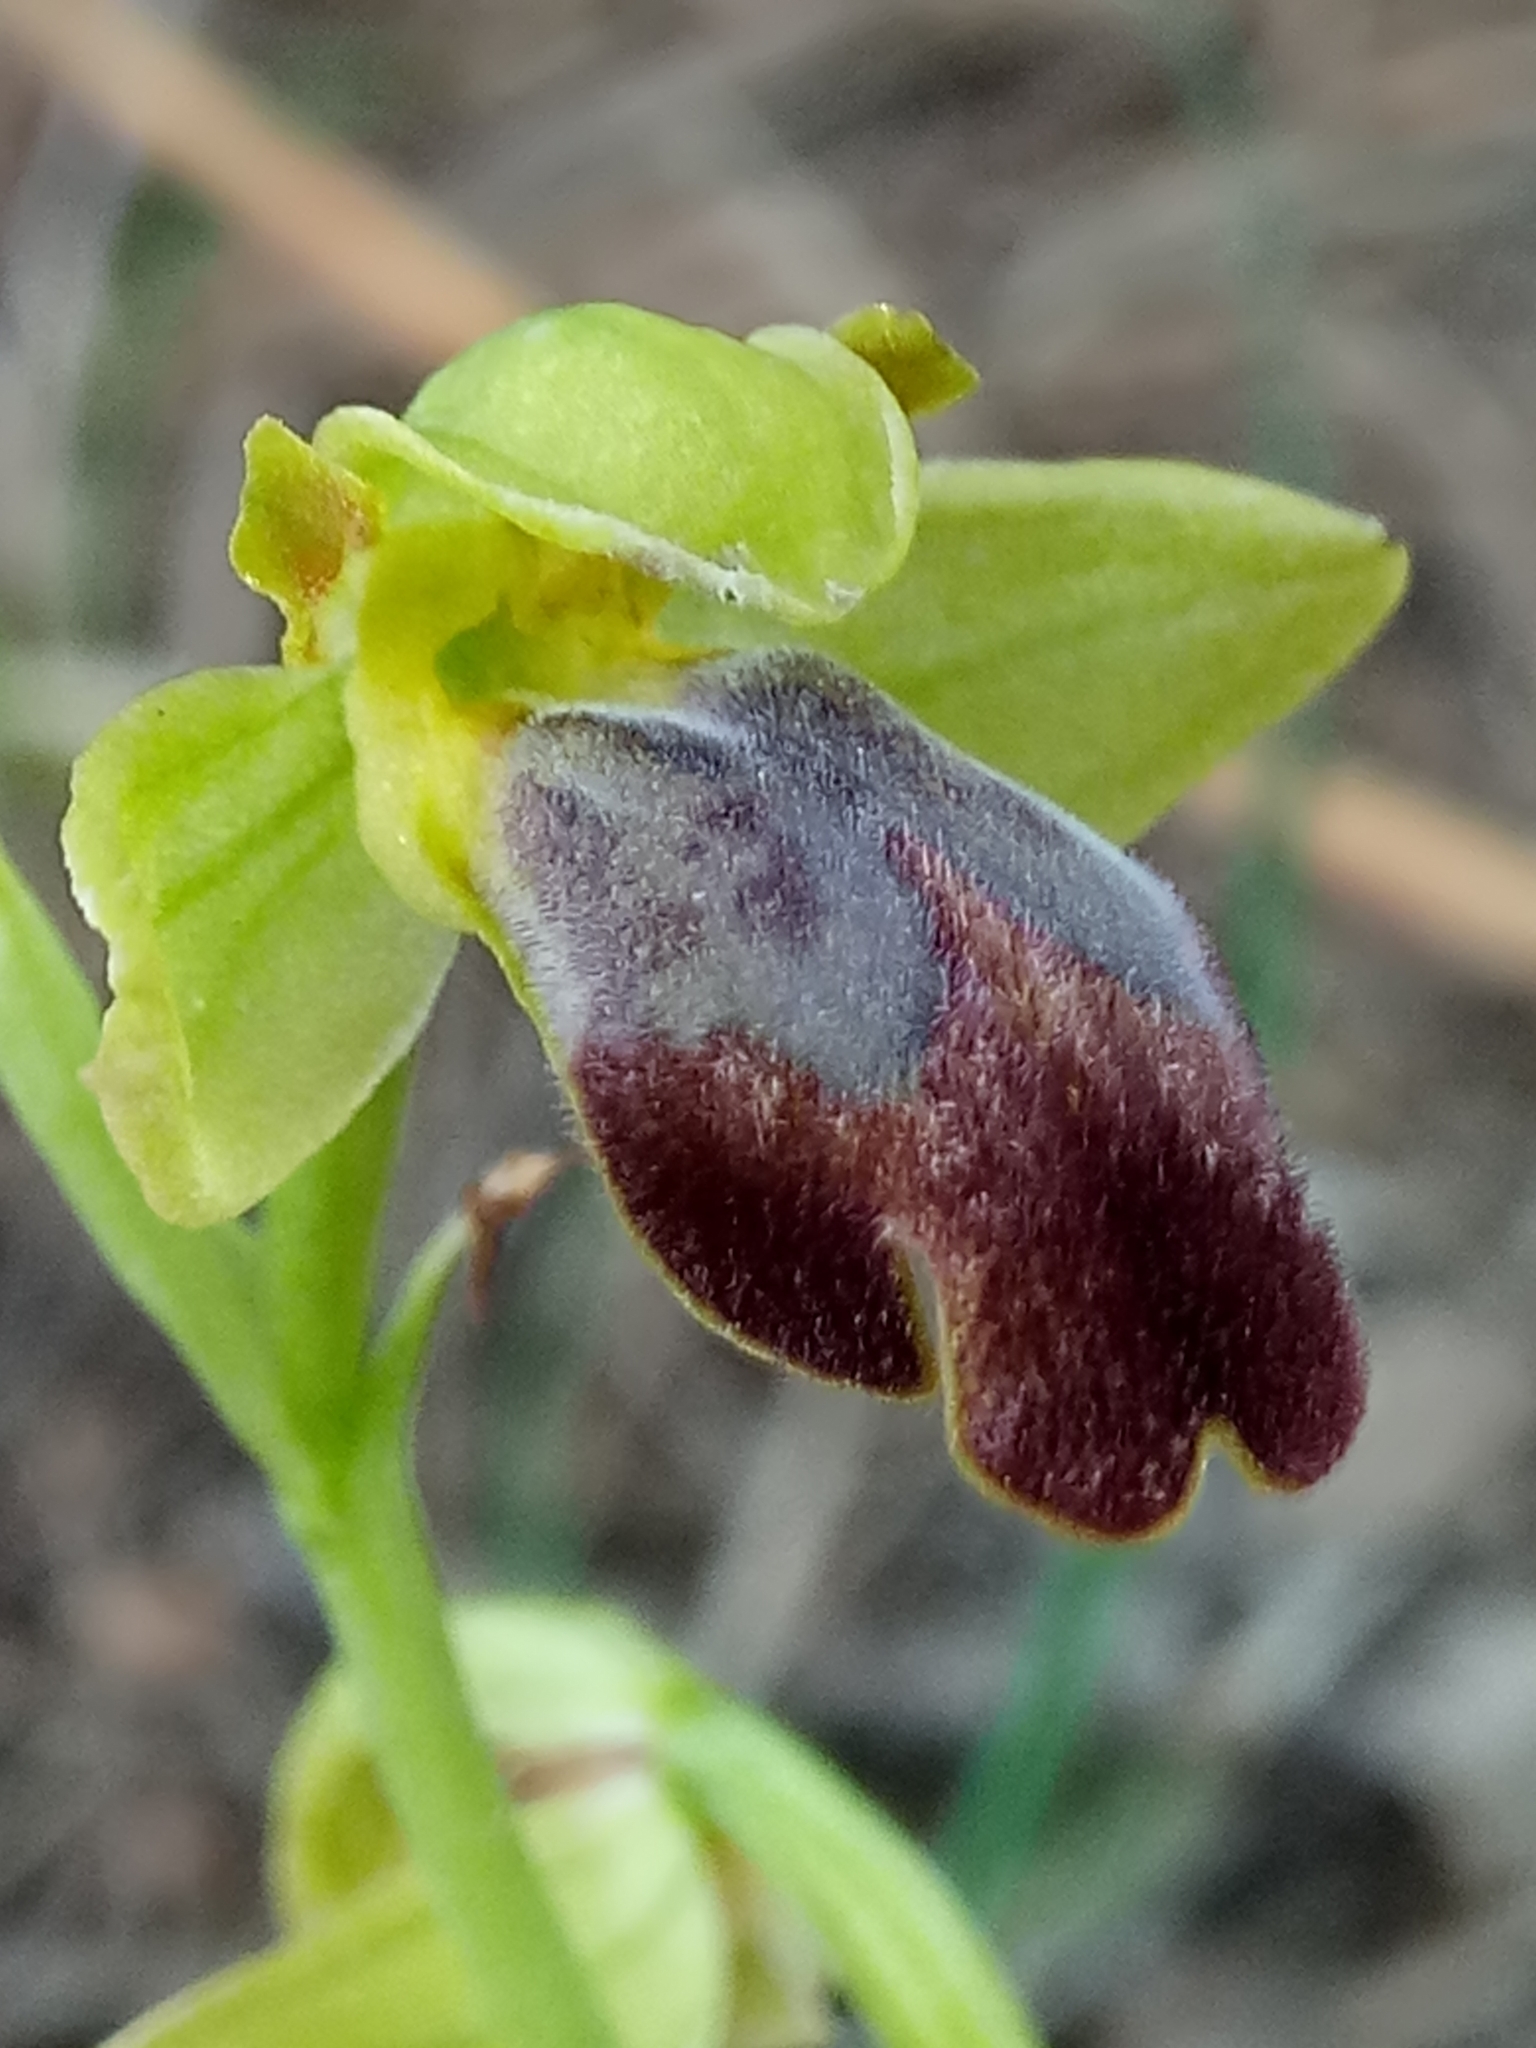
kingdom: Plantae
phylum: Tracheophyta
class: Liliopsida
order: Asparagales
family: Orchidaceae
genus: Ophrys
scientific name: Ophrys fusca
